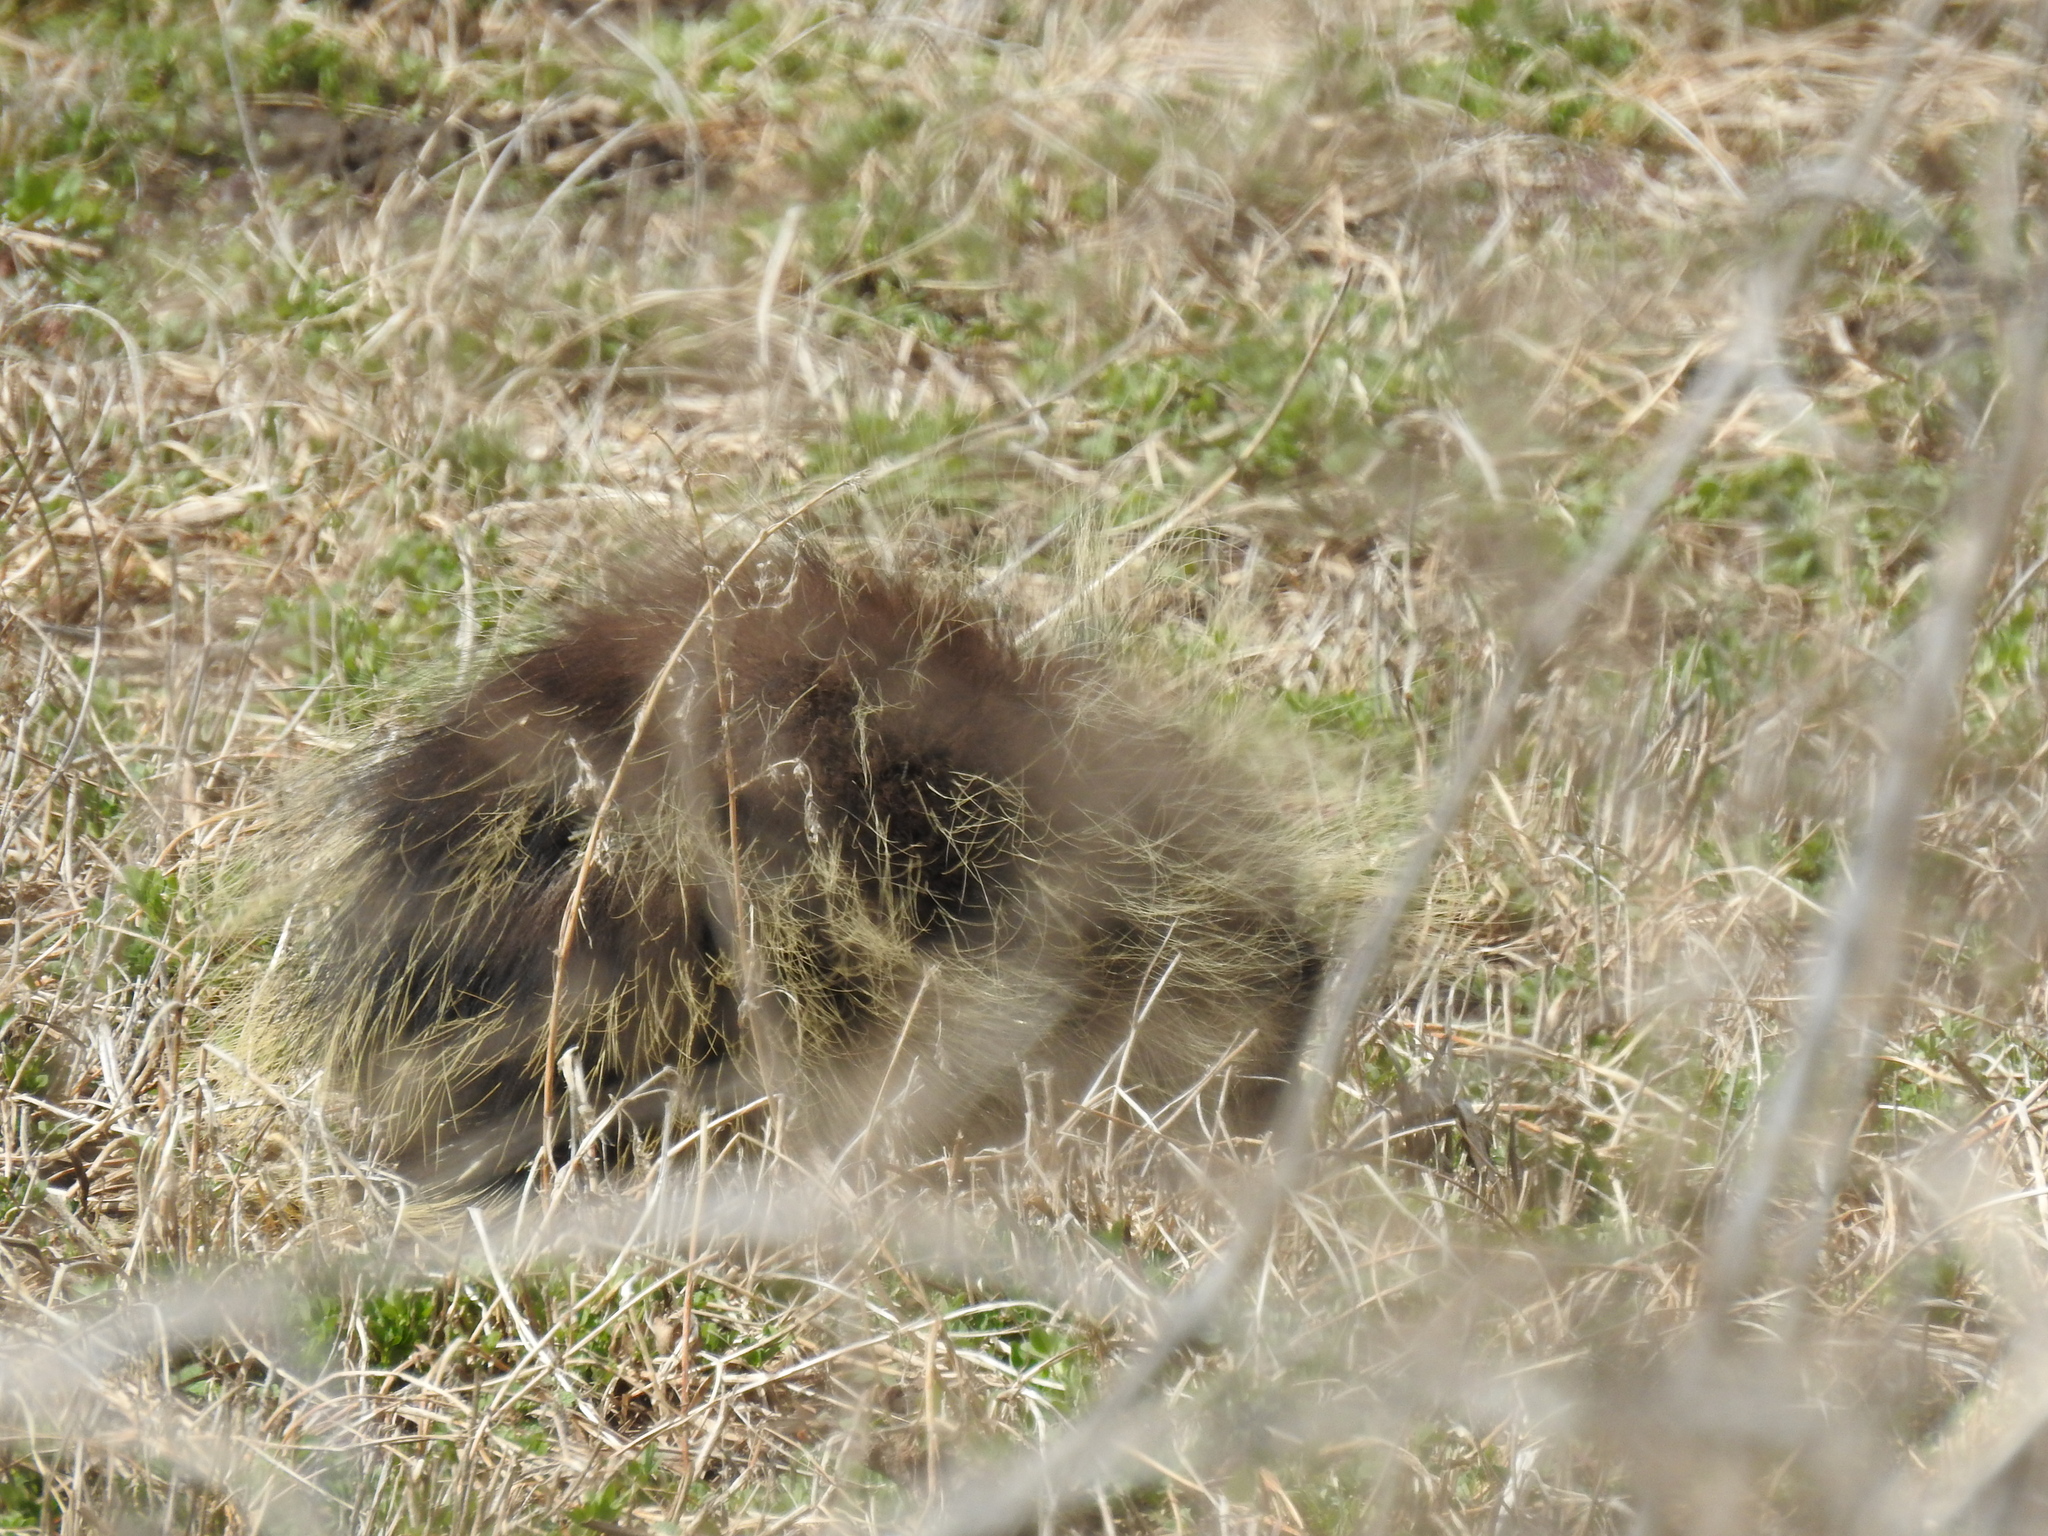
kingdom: Animalia
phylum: Chordata
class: Mammalia
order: Rodentia
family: Erethizontidae
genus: Erethizon
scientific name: Erethizon dorsatus
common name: North american porcupine
